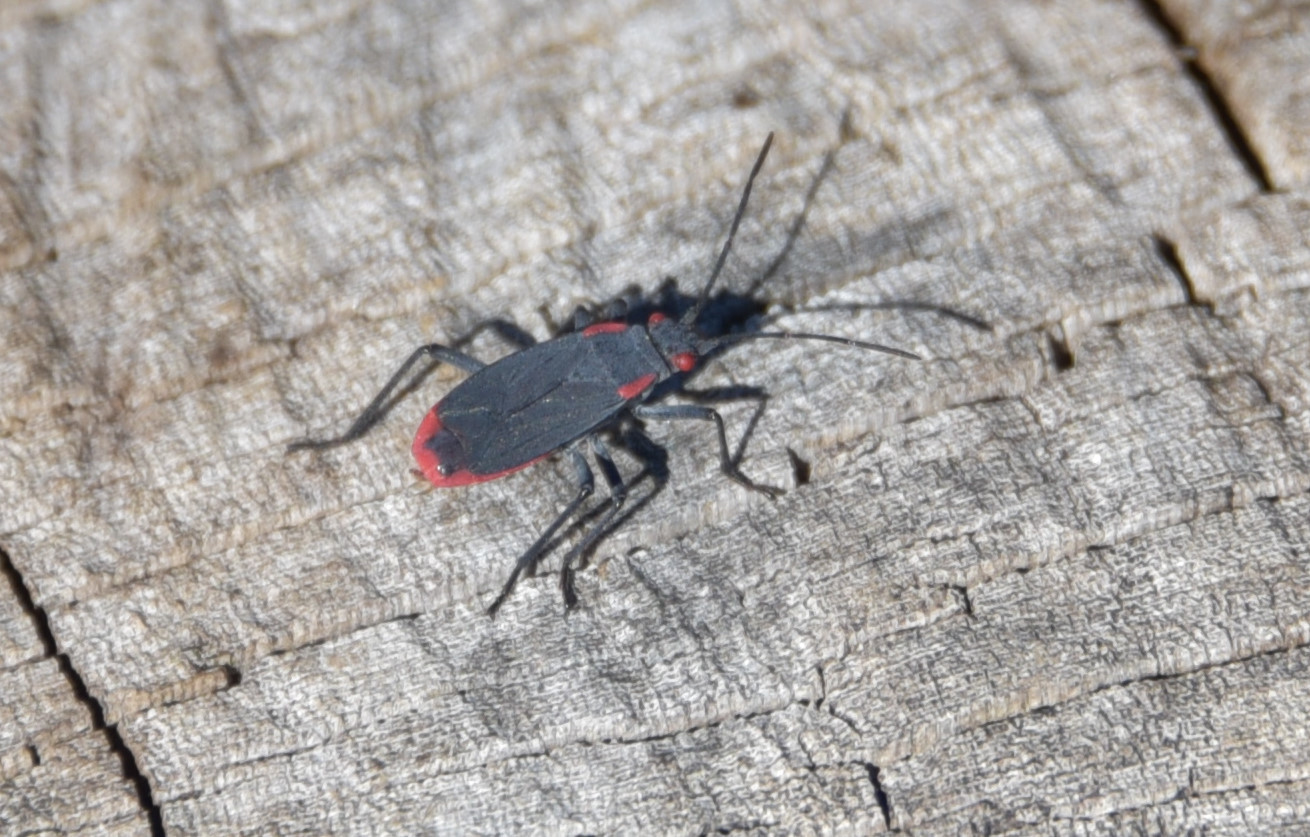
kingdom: Animalia
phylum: Arthropoda
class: Insecta
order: Hemiptera
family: Rhopalidae
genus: Jadera
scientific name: Jadera haematoloma
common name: Red-shouldered bug
